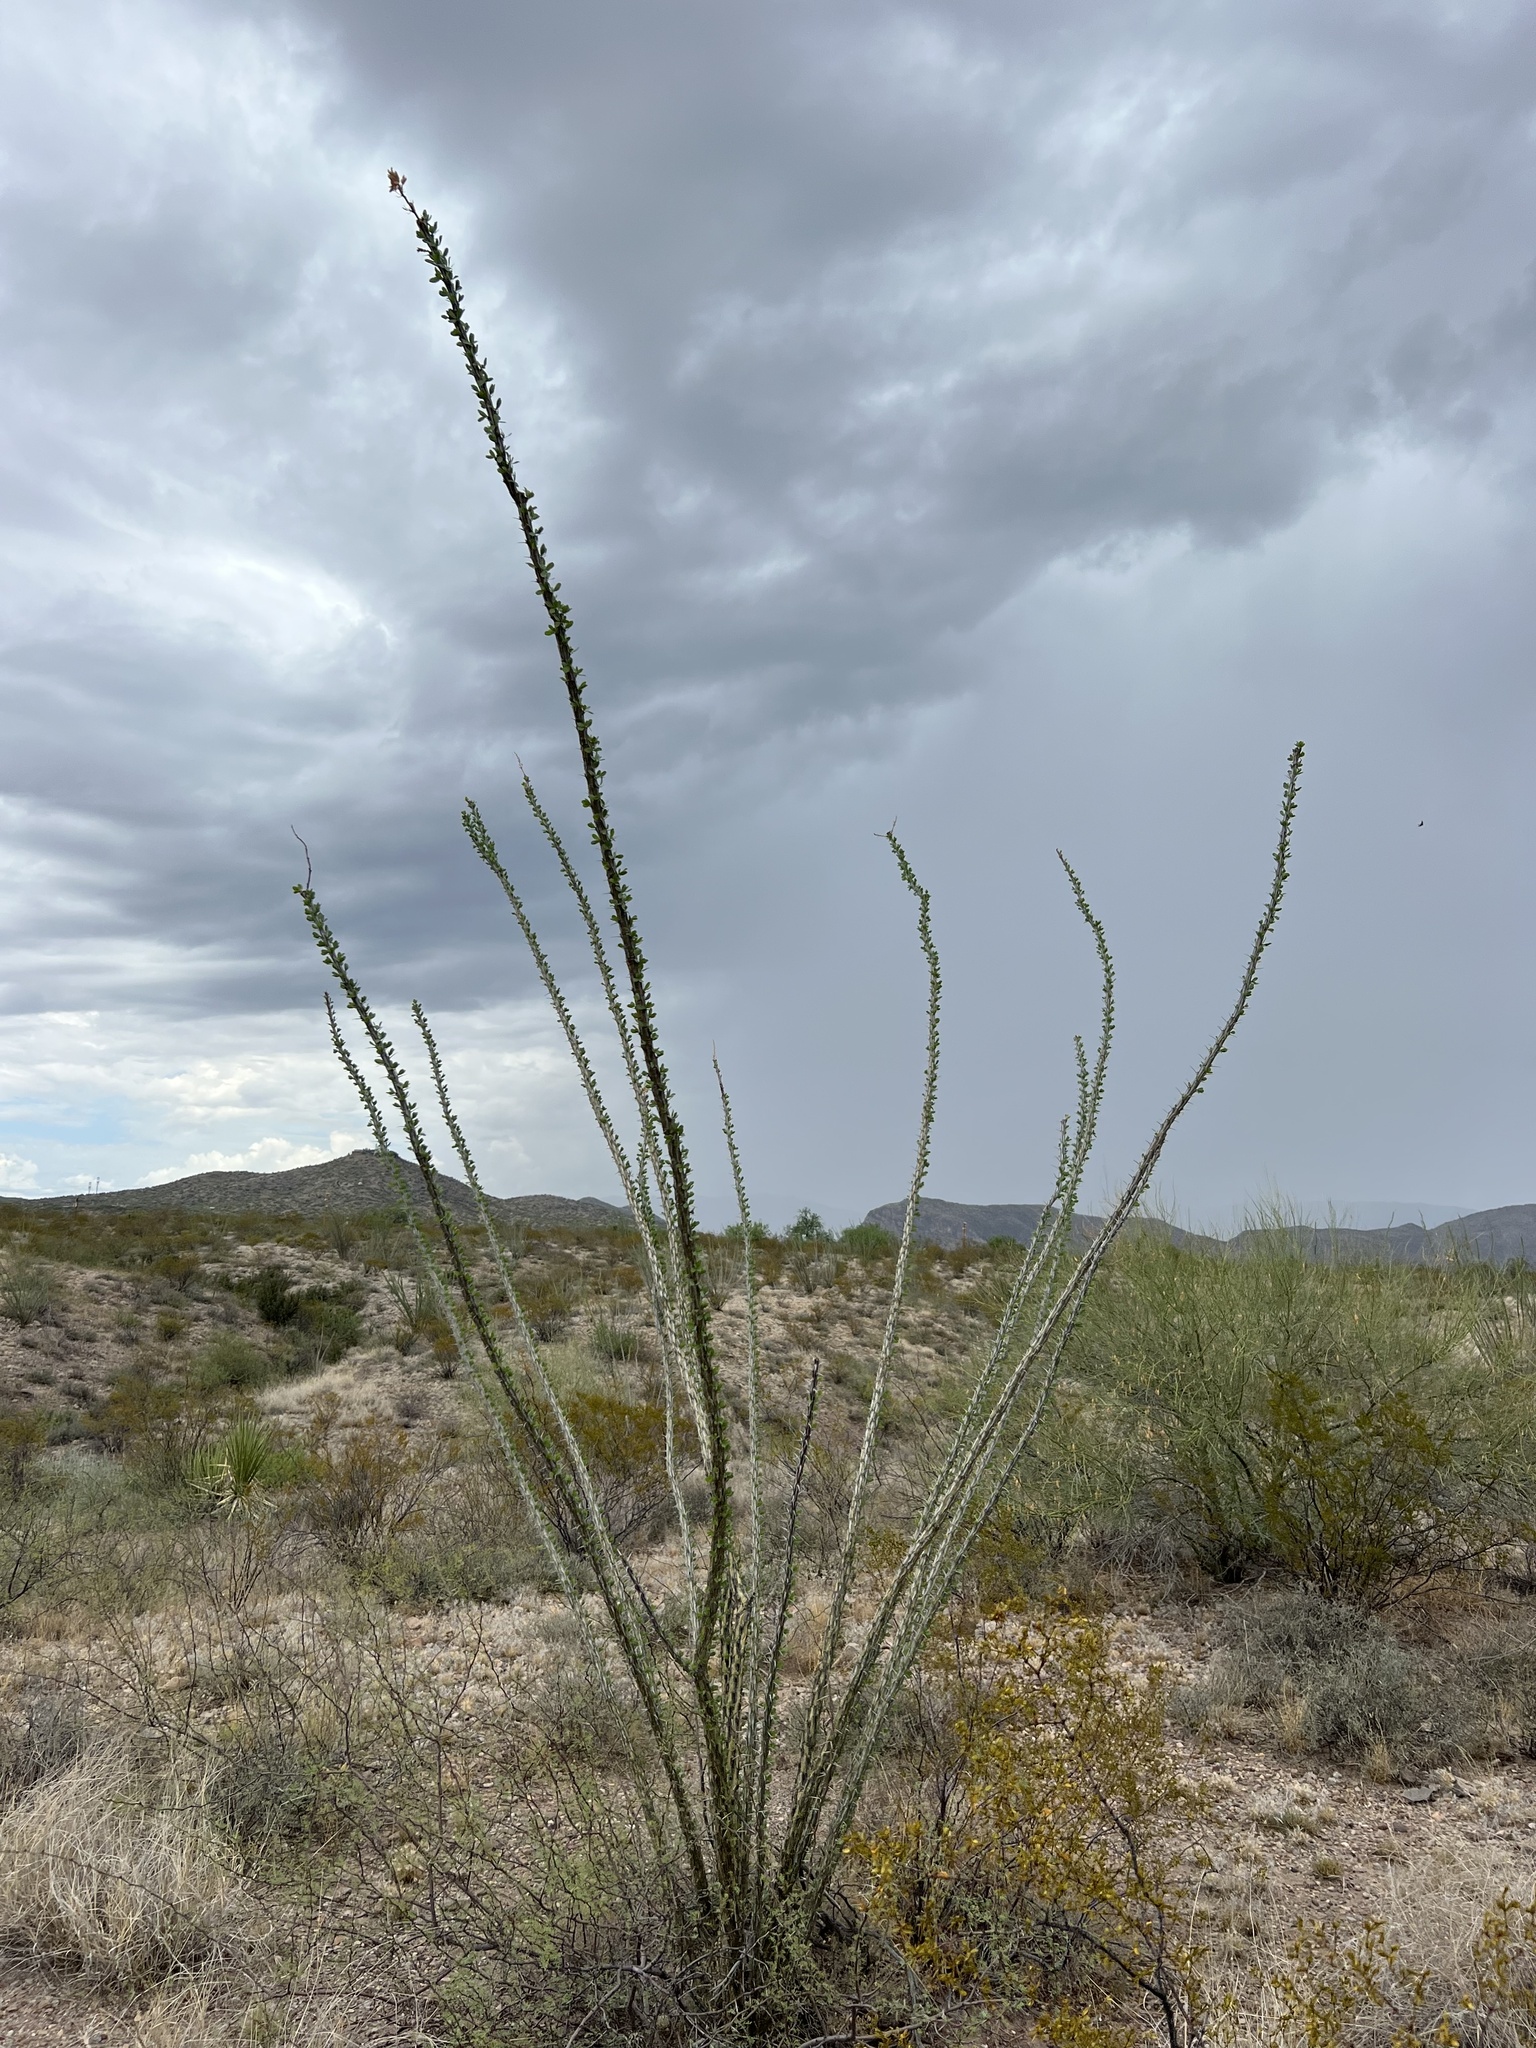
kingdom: Plantae
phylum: Tracheophyta
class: Magnoliopsida
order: Ericales
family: Fouquieriaceae
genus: Fouquieria
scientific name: Fouquieria splendens
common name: Vine-cactus
